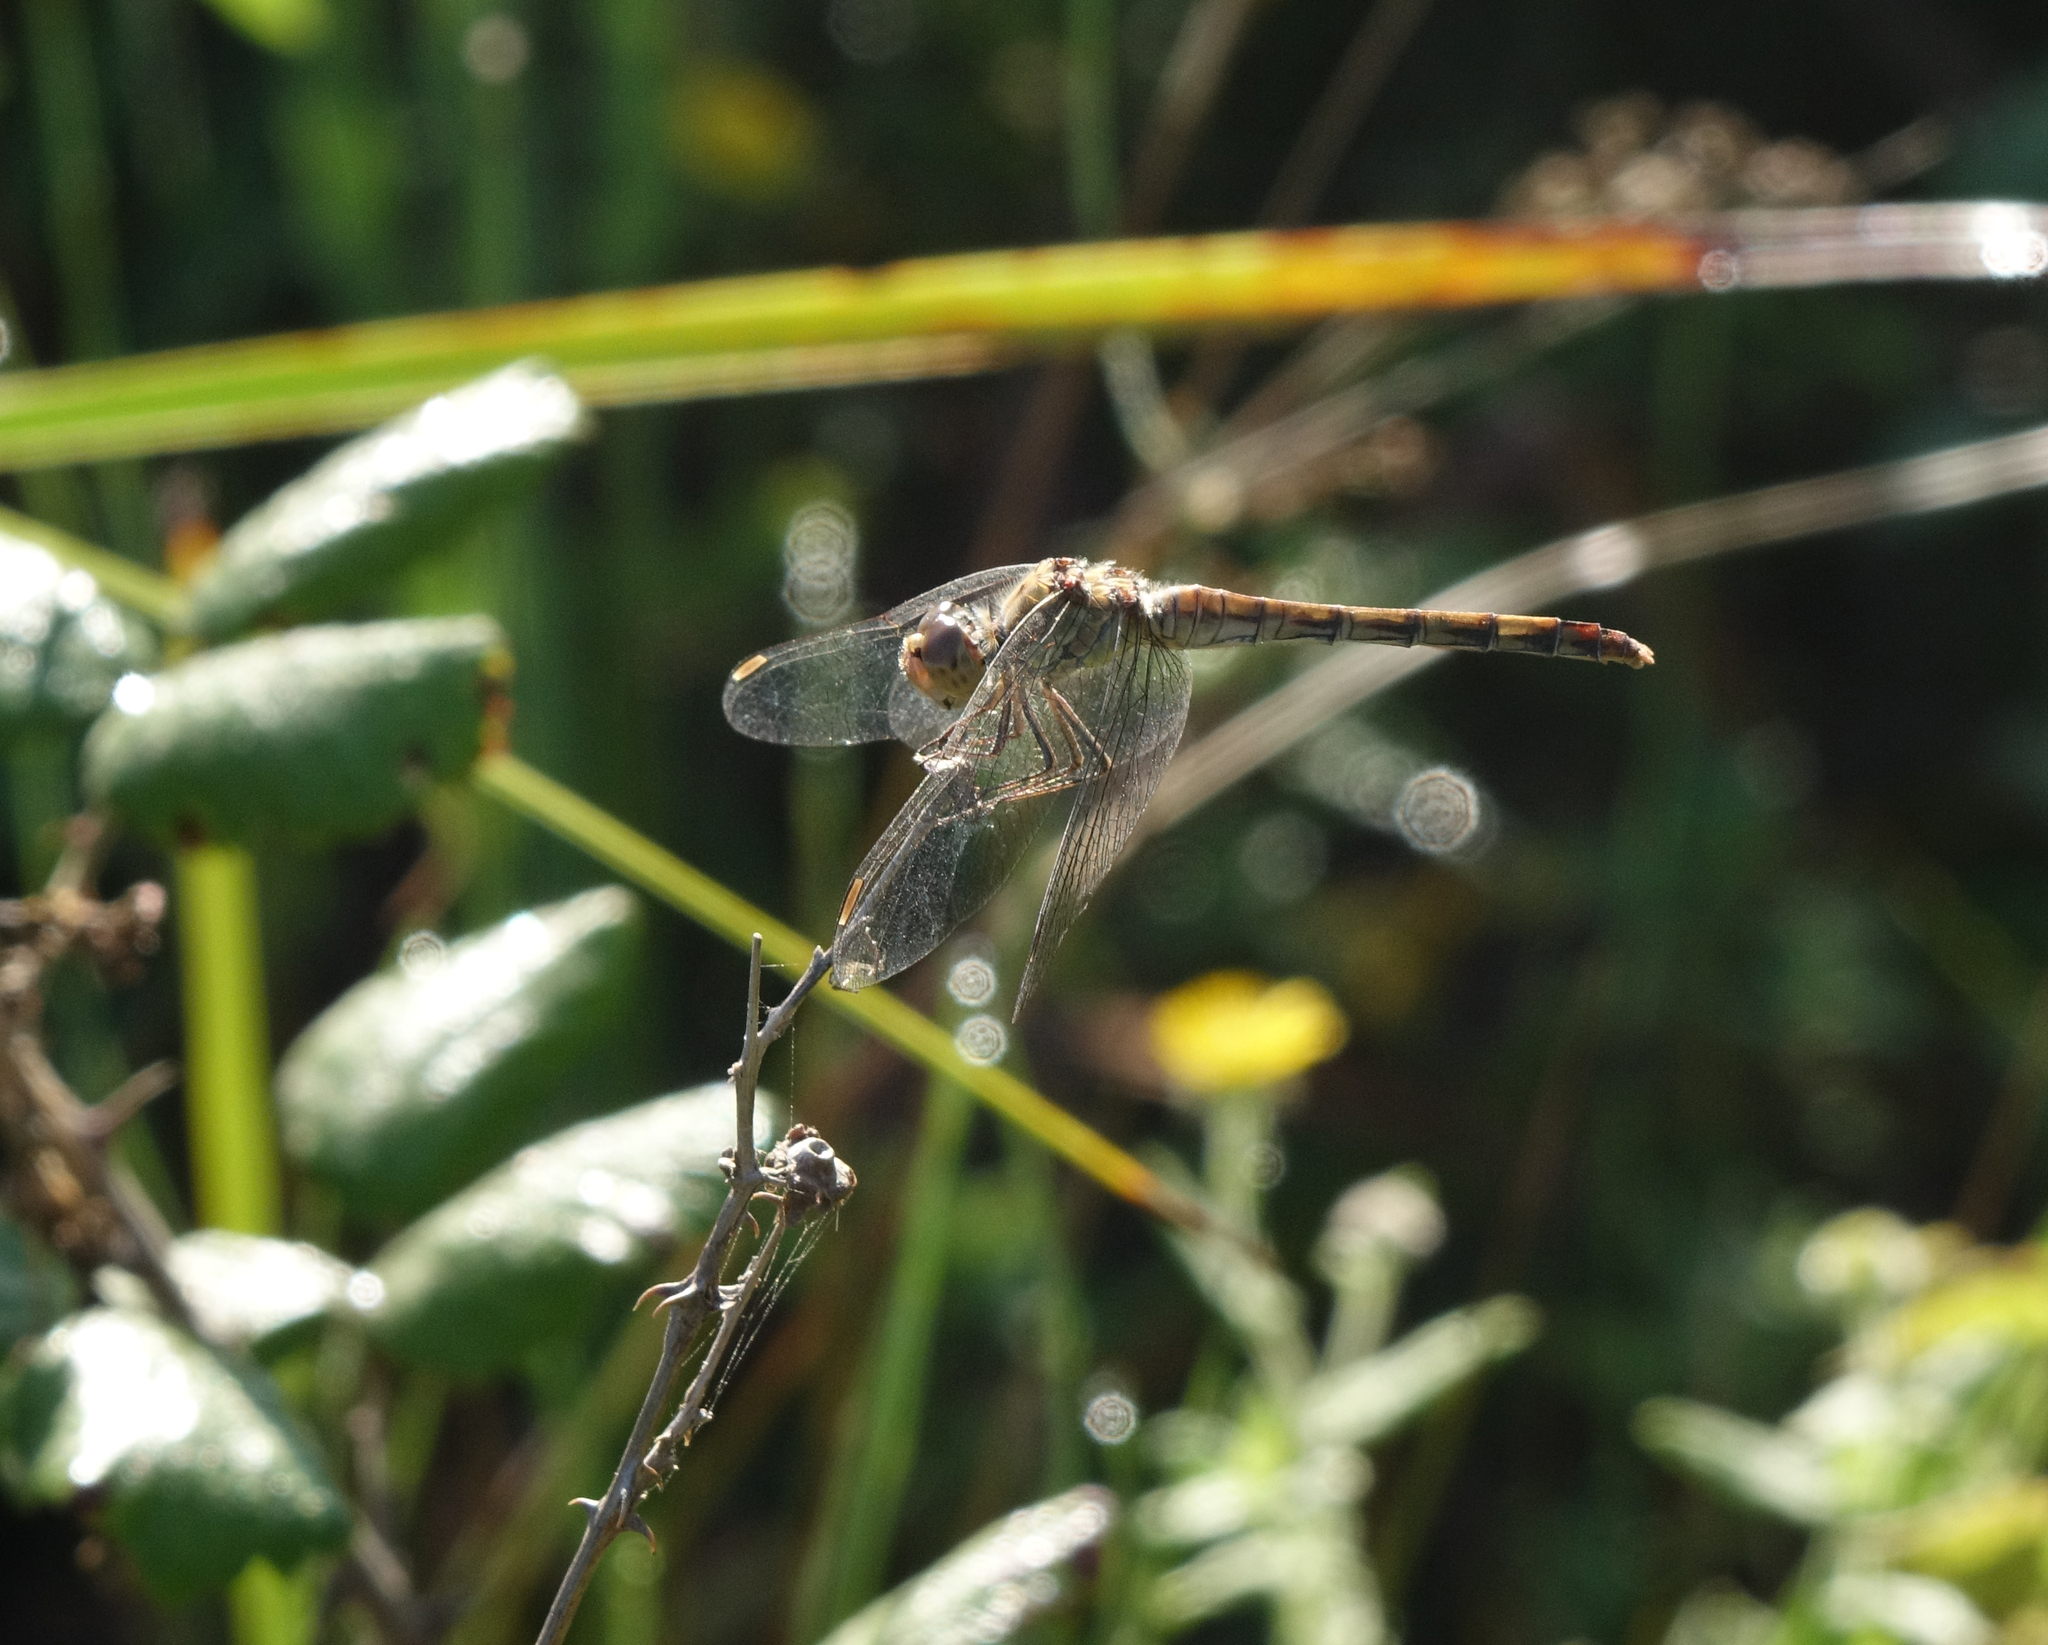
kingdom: Animalia
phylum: Arthropoda
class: Insecta
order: Odonata
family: Libellulidae
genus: Sympetrum
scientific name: Sympetrum striolatum
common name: Common darter
